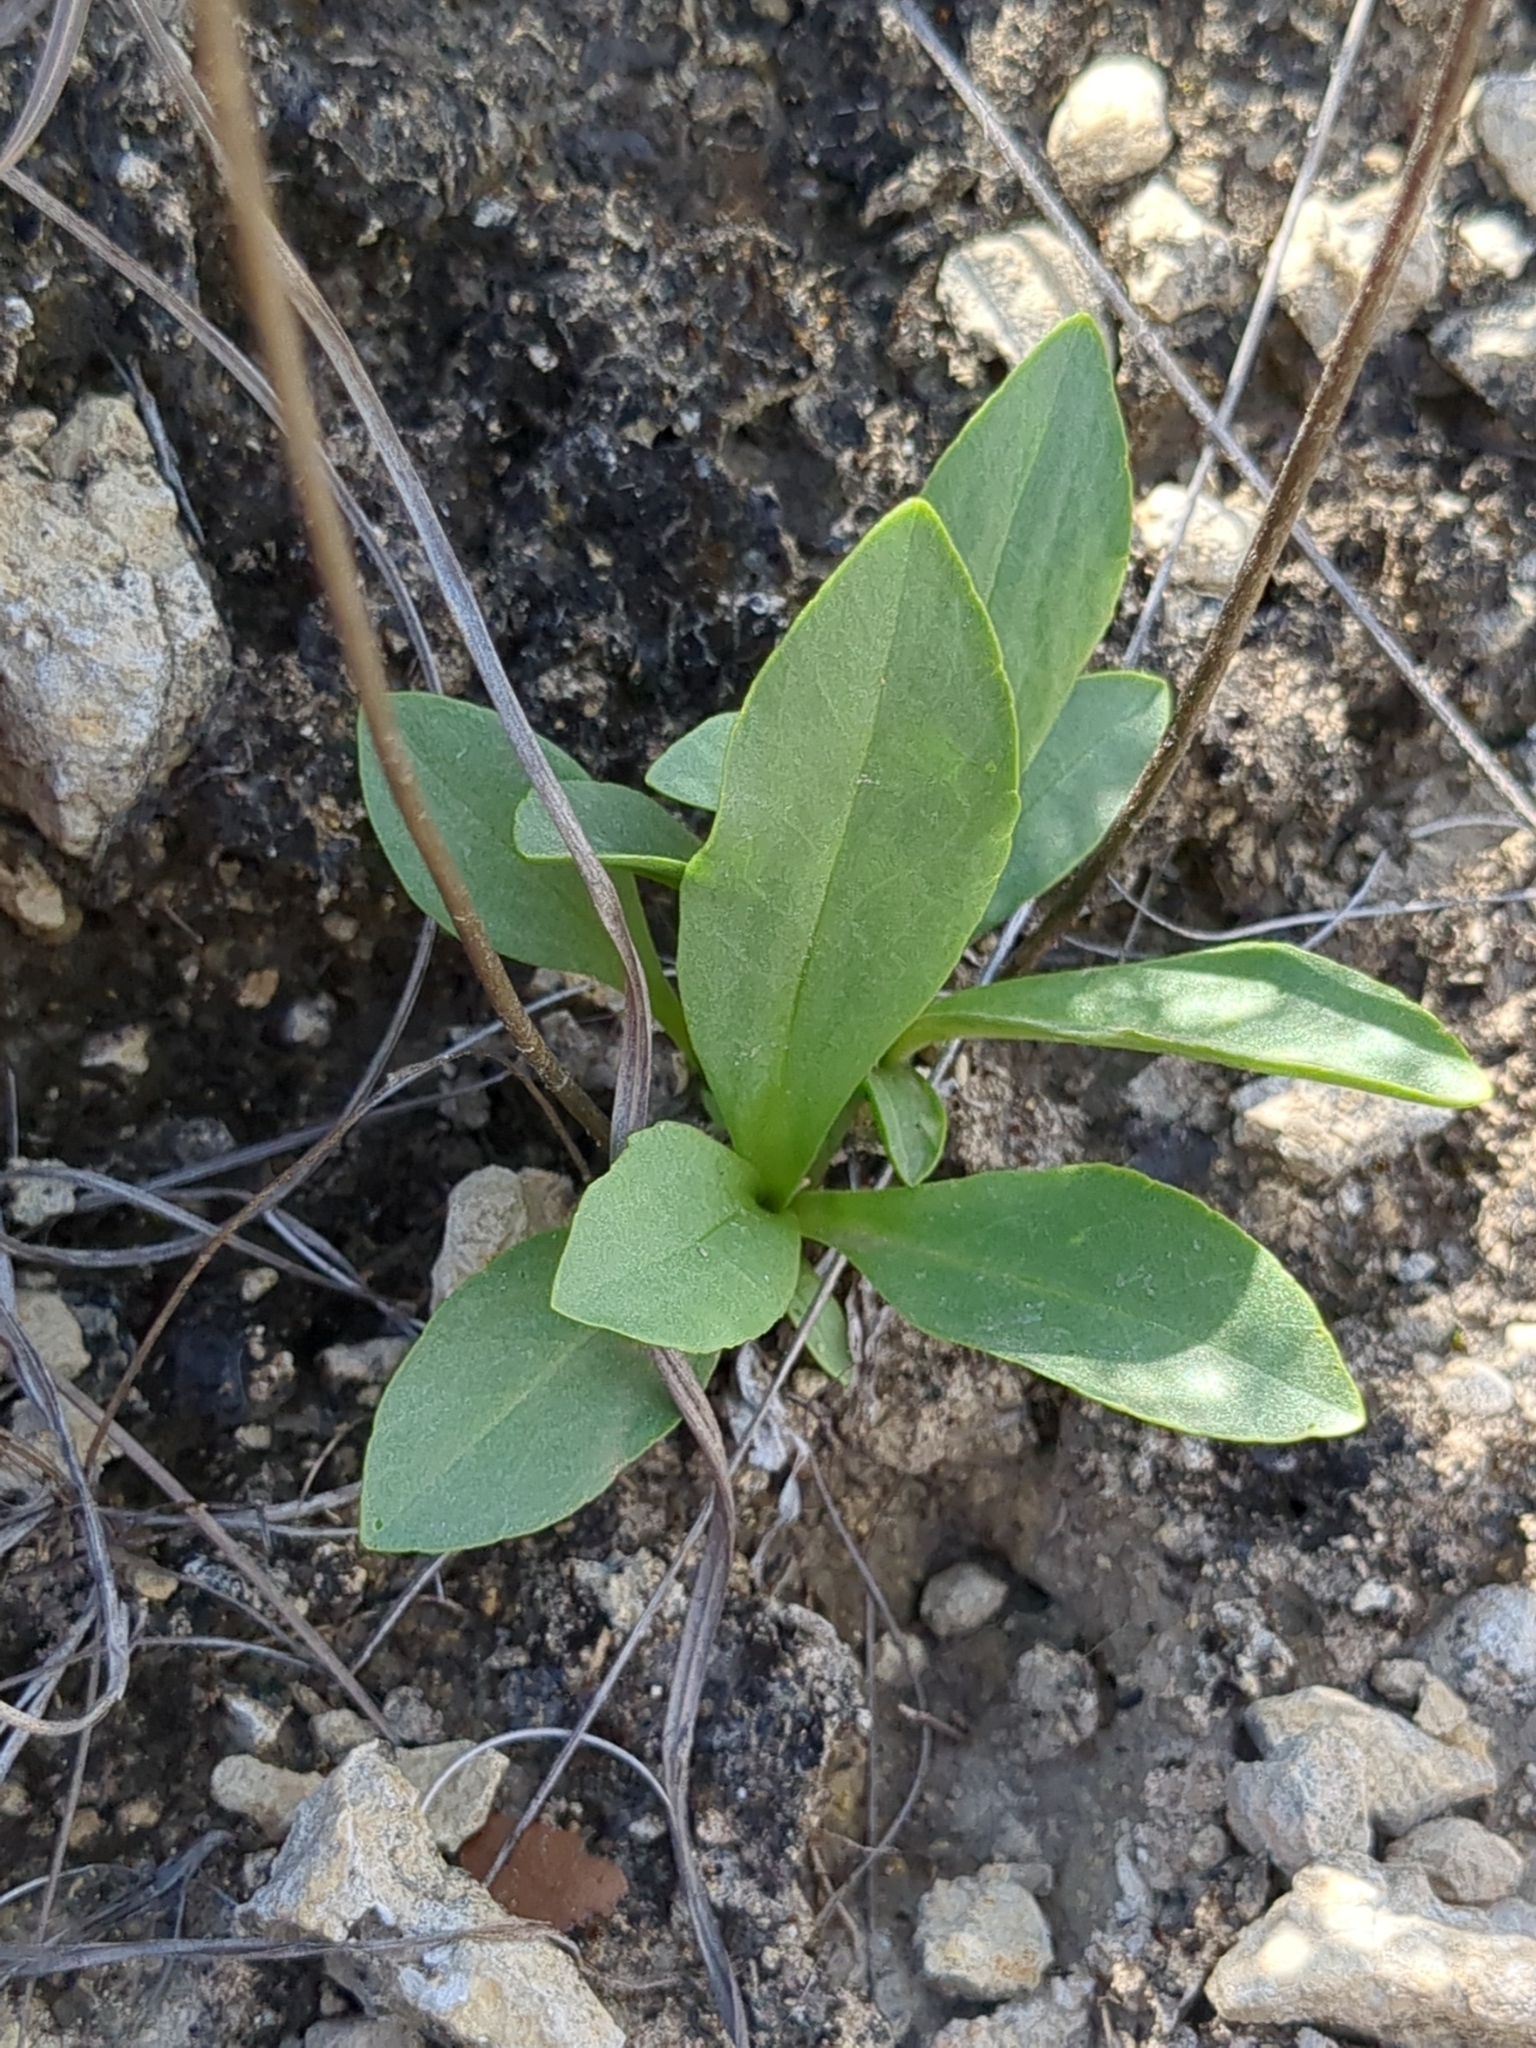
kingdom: Plantae
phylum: Tracheophyta
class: Magnoliopsida
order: Ericales
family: Primulaceae
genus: Dodecatheon
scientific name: Dodecatheon meadia
